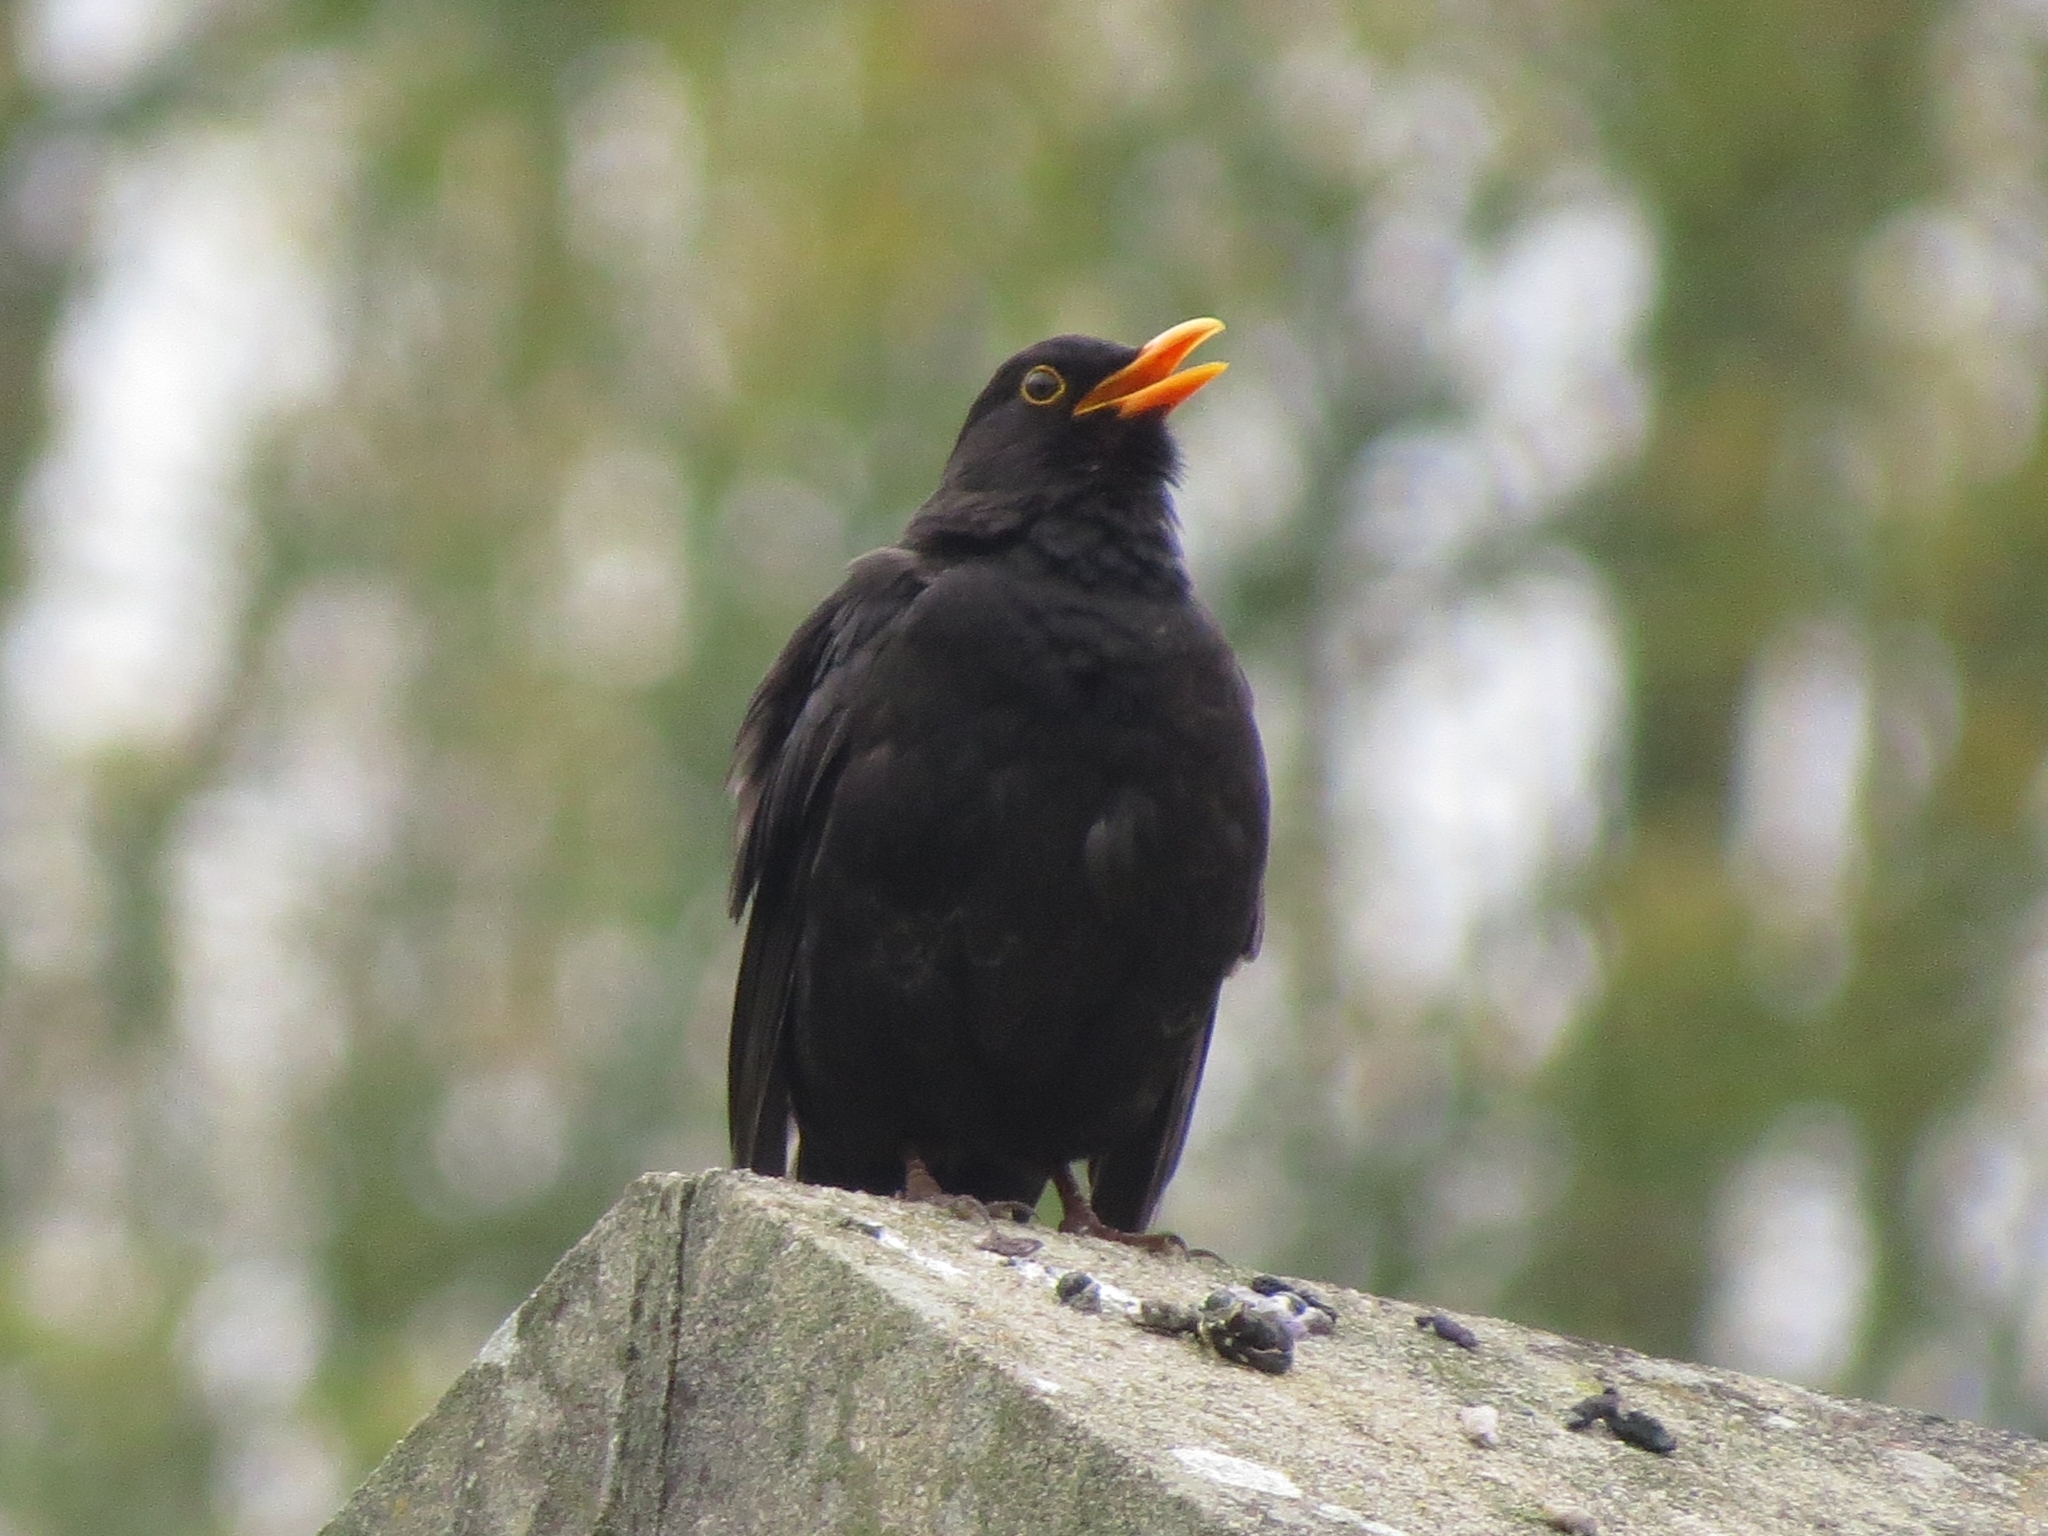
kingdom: Animalia
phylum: Chordata
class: Aves
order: Passeriformes
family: Turdidae
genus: Turdus
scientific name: Turdus merula
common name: Common blackbird
